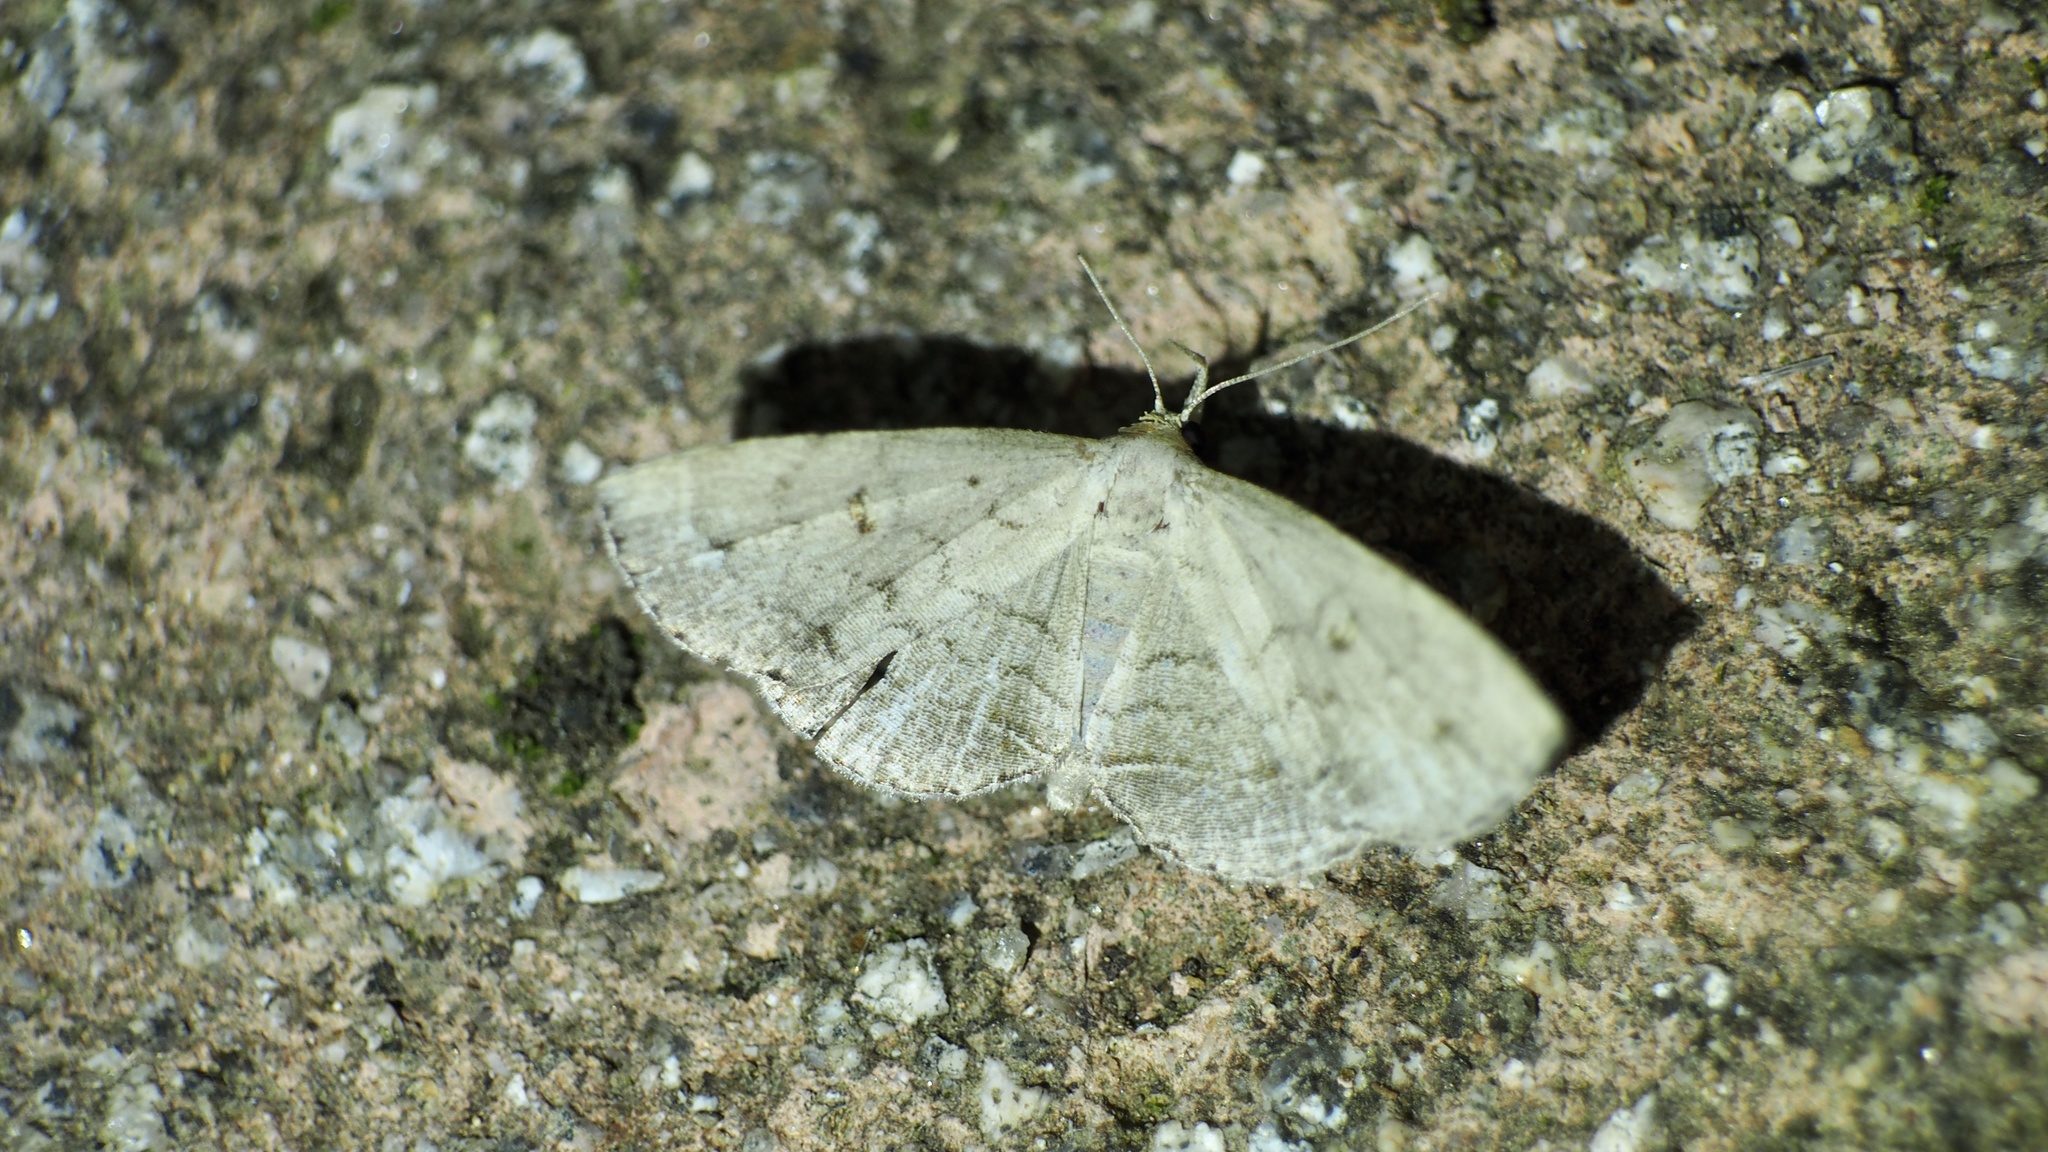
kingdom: Animalia
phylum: Arthropoda
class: Insecta
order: Lepidoptera
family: Erebidae
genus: Herminia
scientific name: Herminia fentoni
